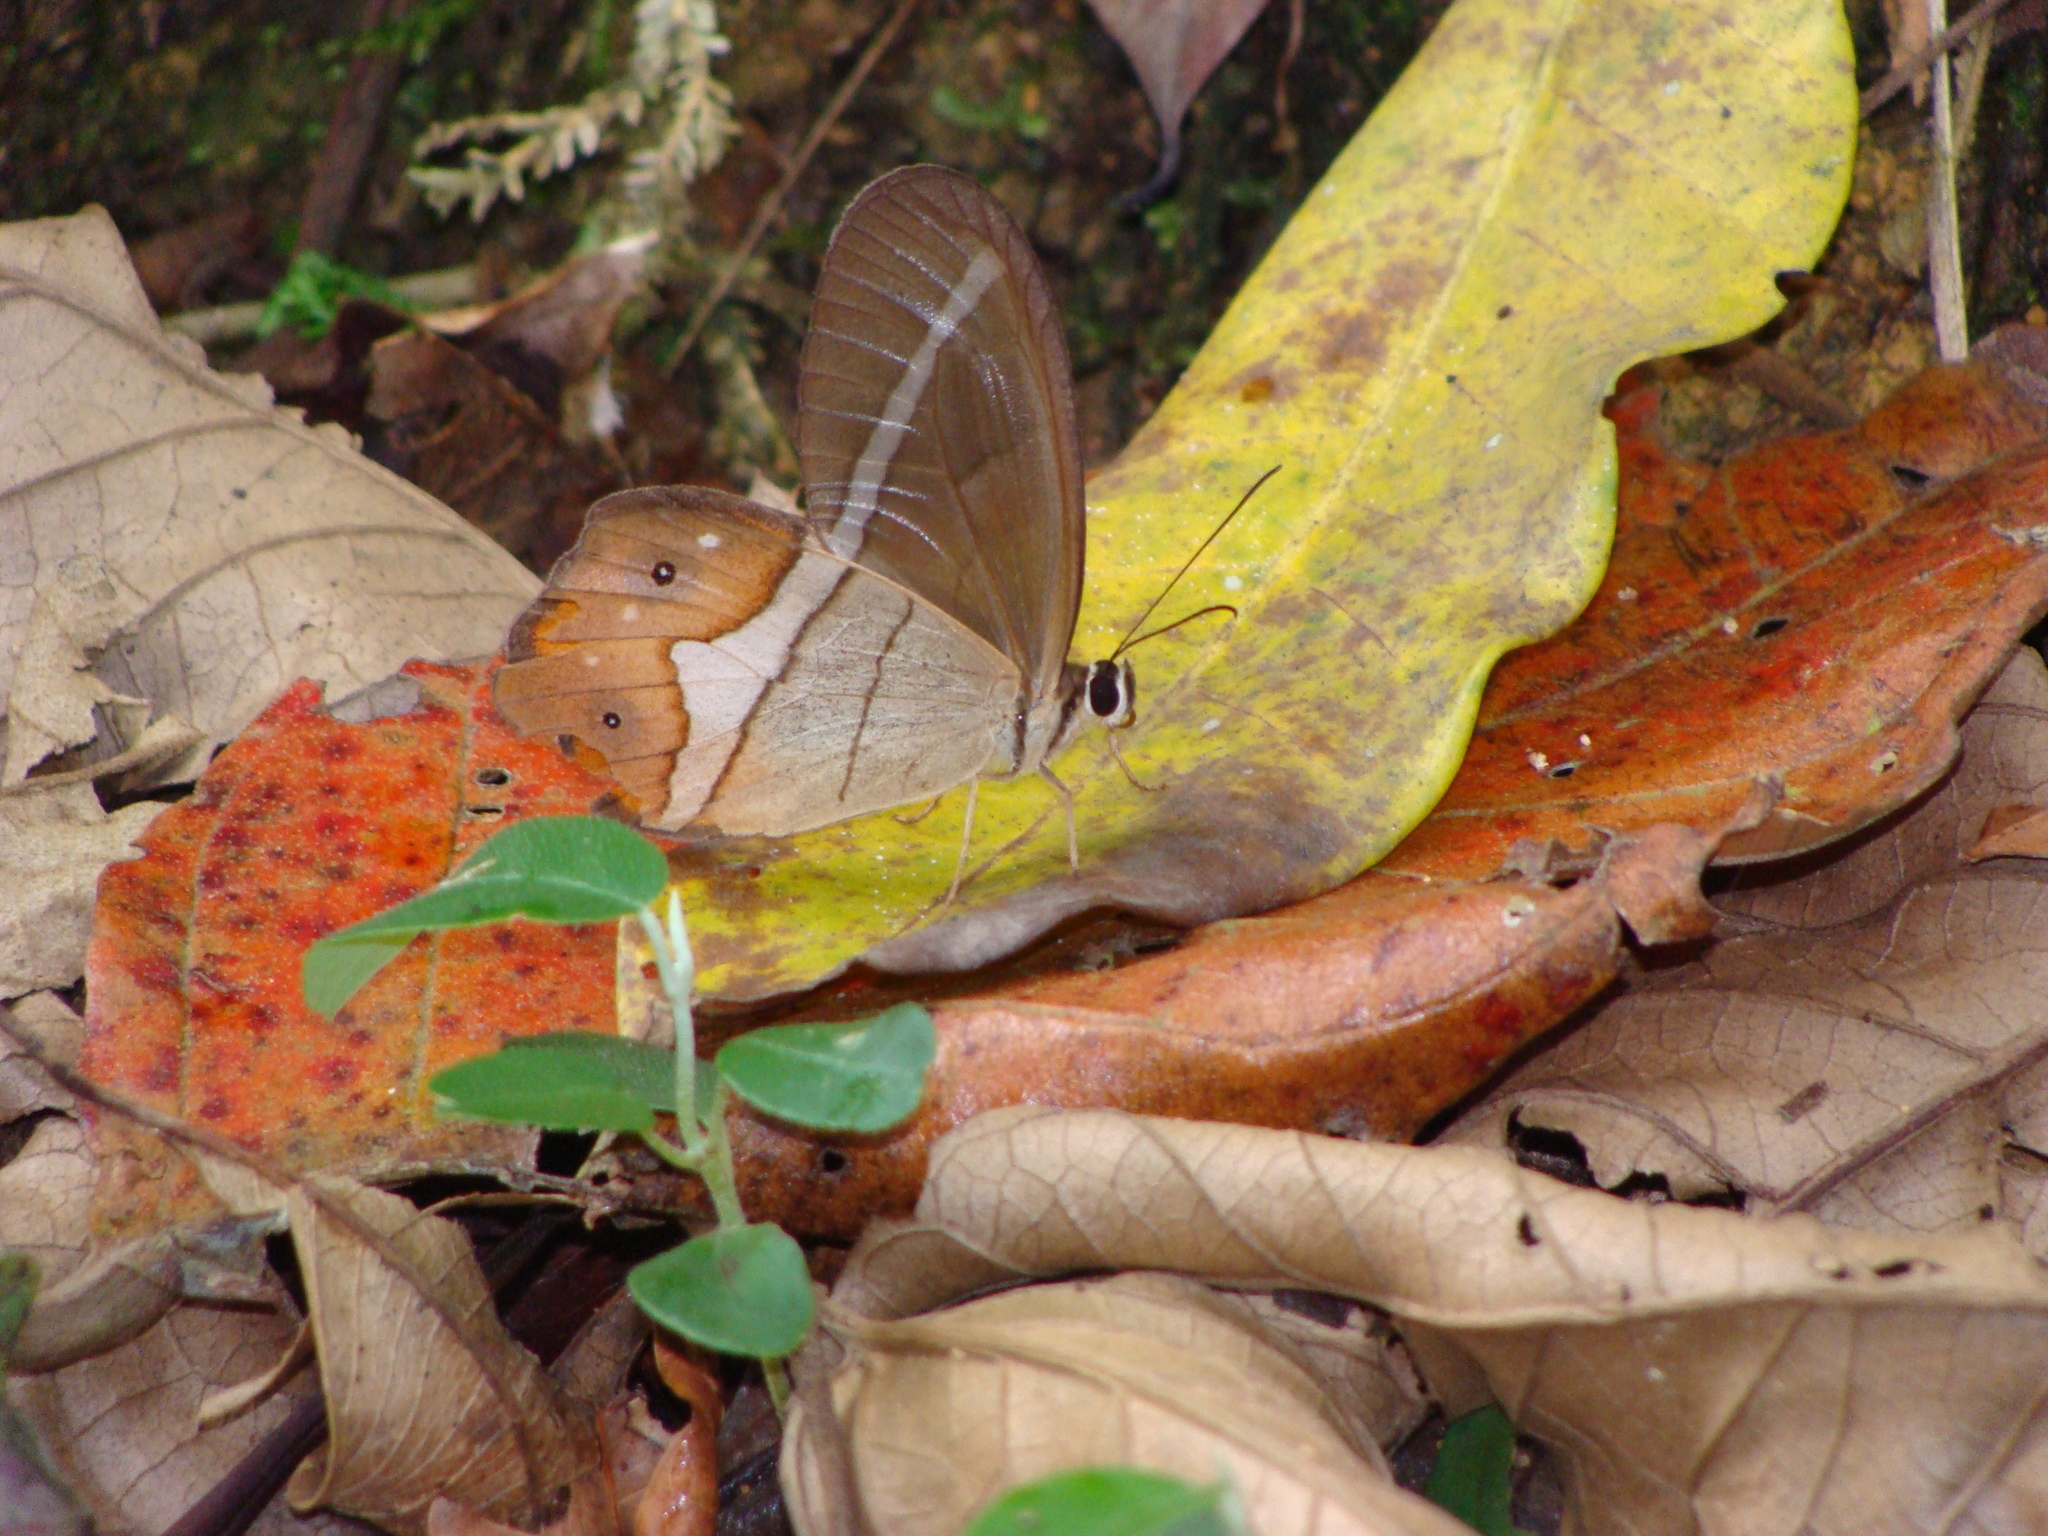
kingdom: Animalia
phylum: Arthropoda
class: Insecta
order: Lepidoptera
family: Nymphalidae
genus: Pierella
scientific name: Pierella nereis
